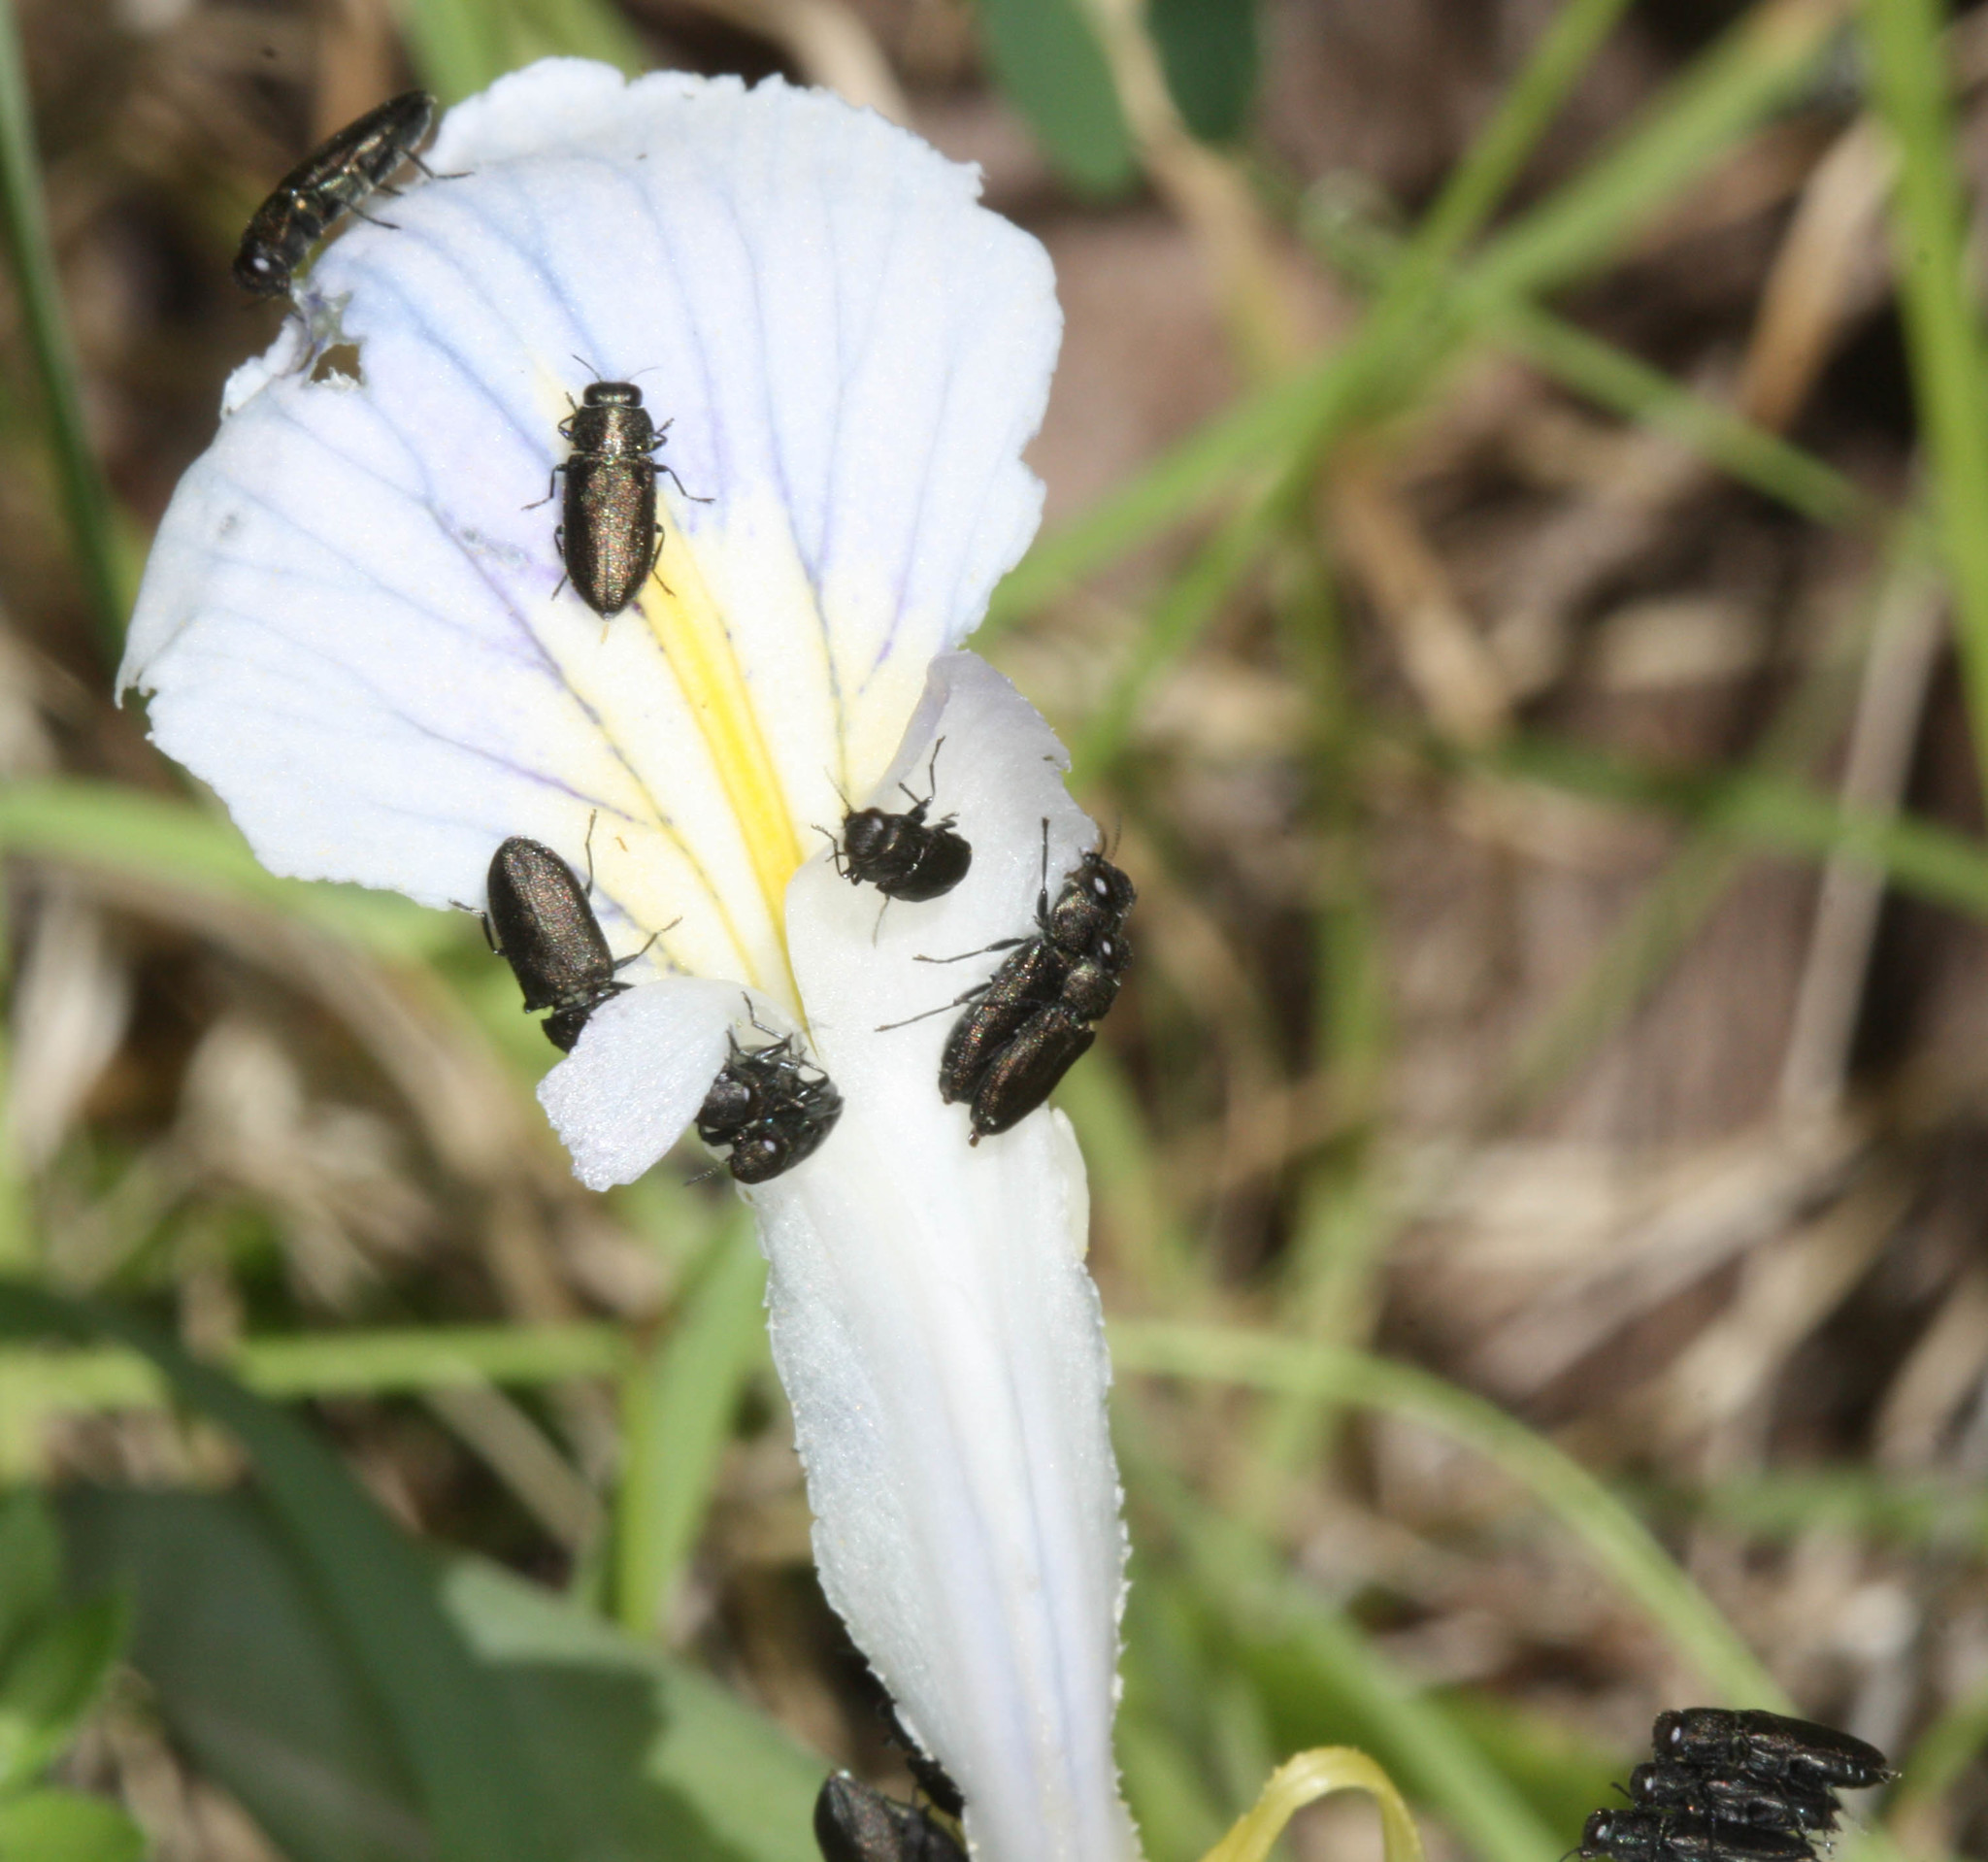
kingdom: Animalia
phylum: Arthropoda
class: Insecta
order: Coleoptera
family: Buprestidae
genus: Anthaxia
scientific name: Anthaxia
